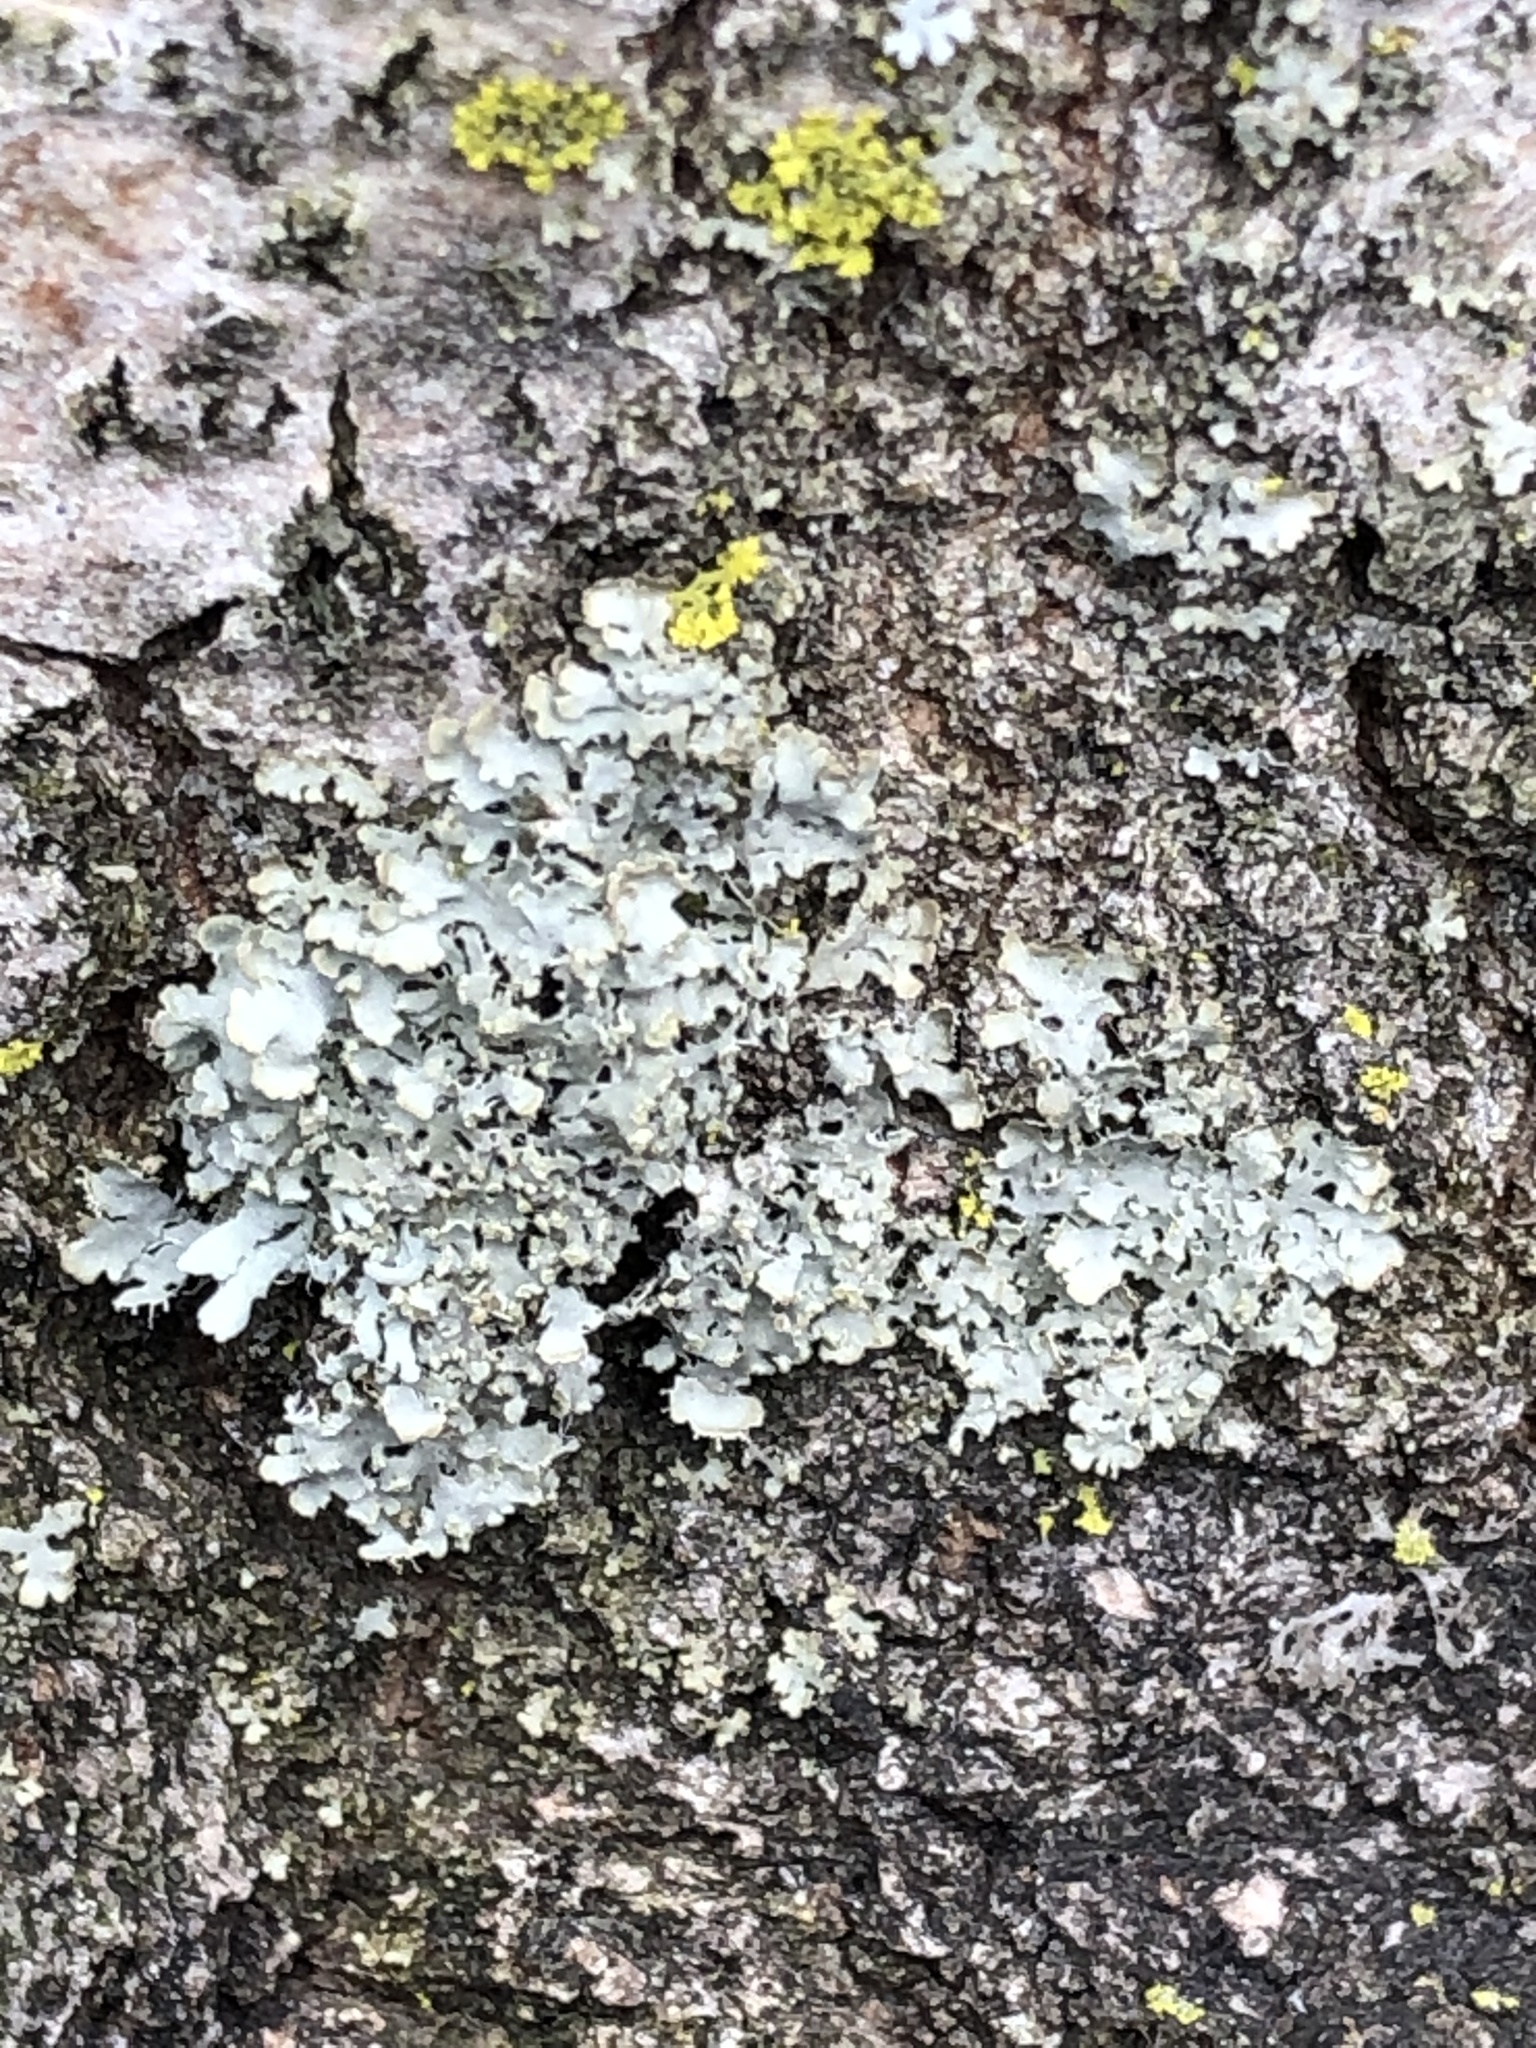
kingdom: Fungi
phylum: Ascomycota
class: Lecanoromycetes
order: Caliciales
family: Physciaceae
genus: Physciella
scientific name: Physciella chloantha
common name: Cryptic rosette lichen
